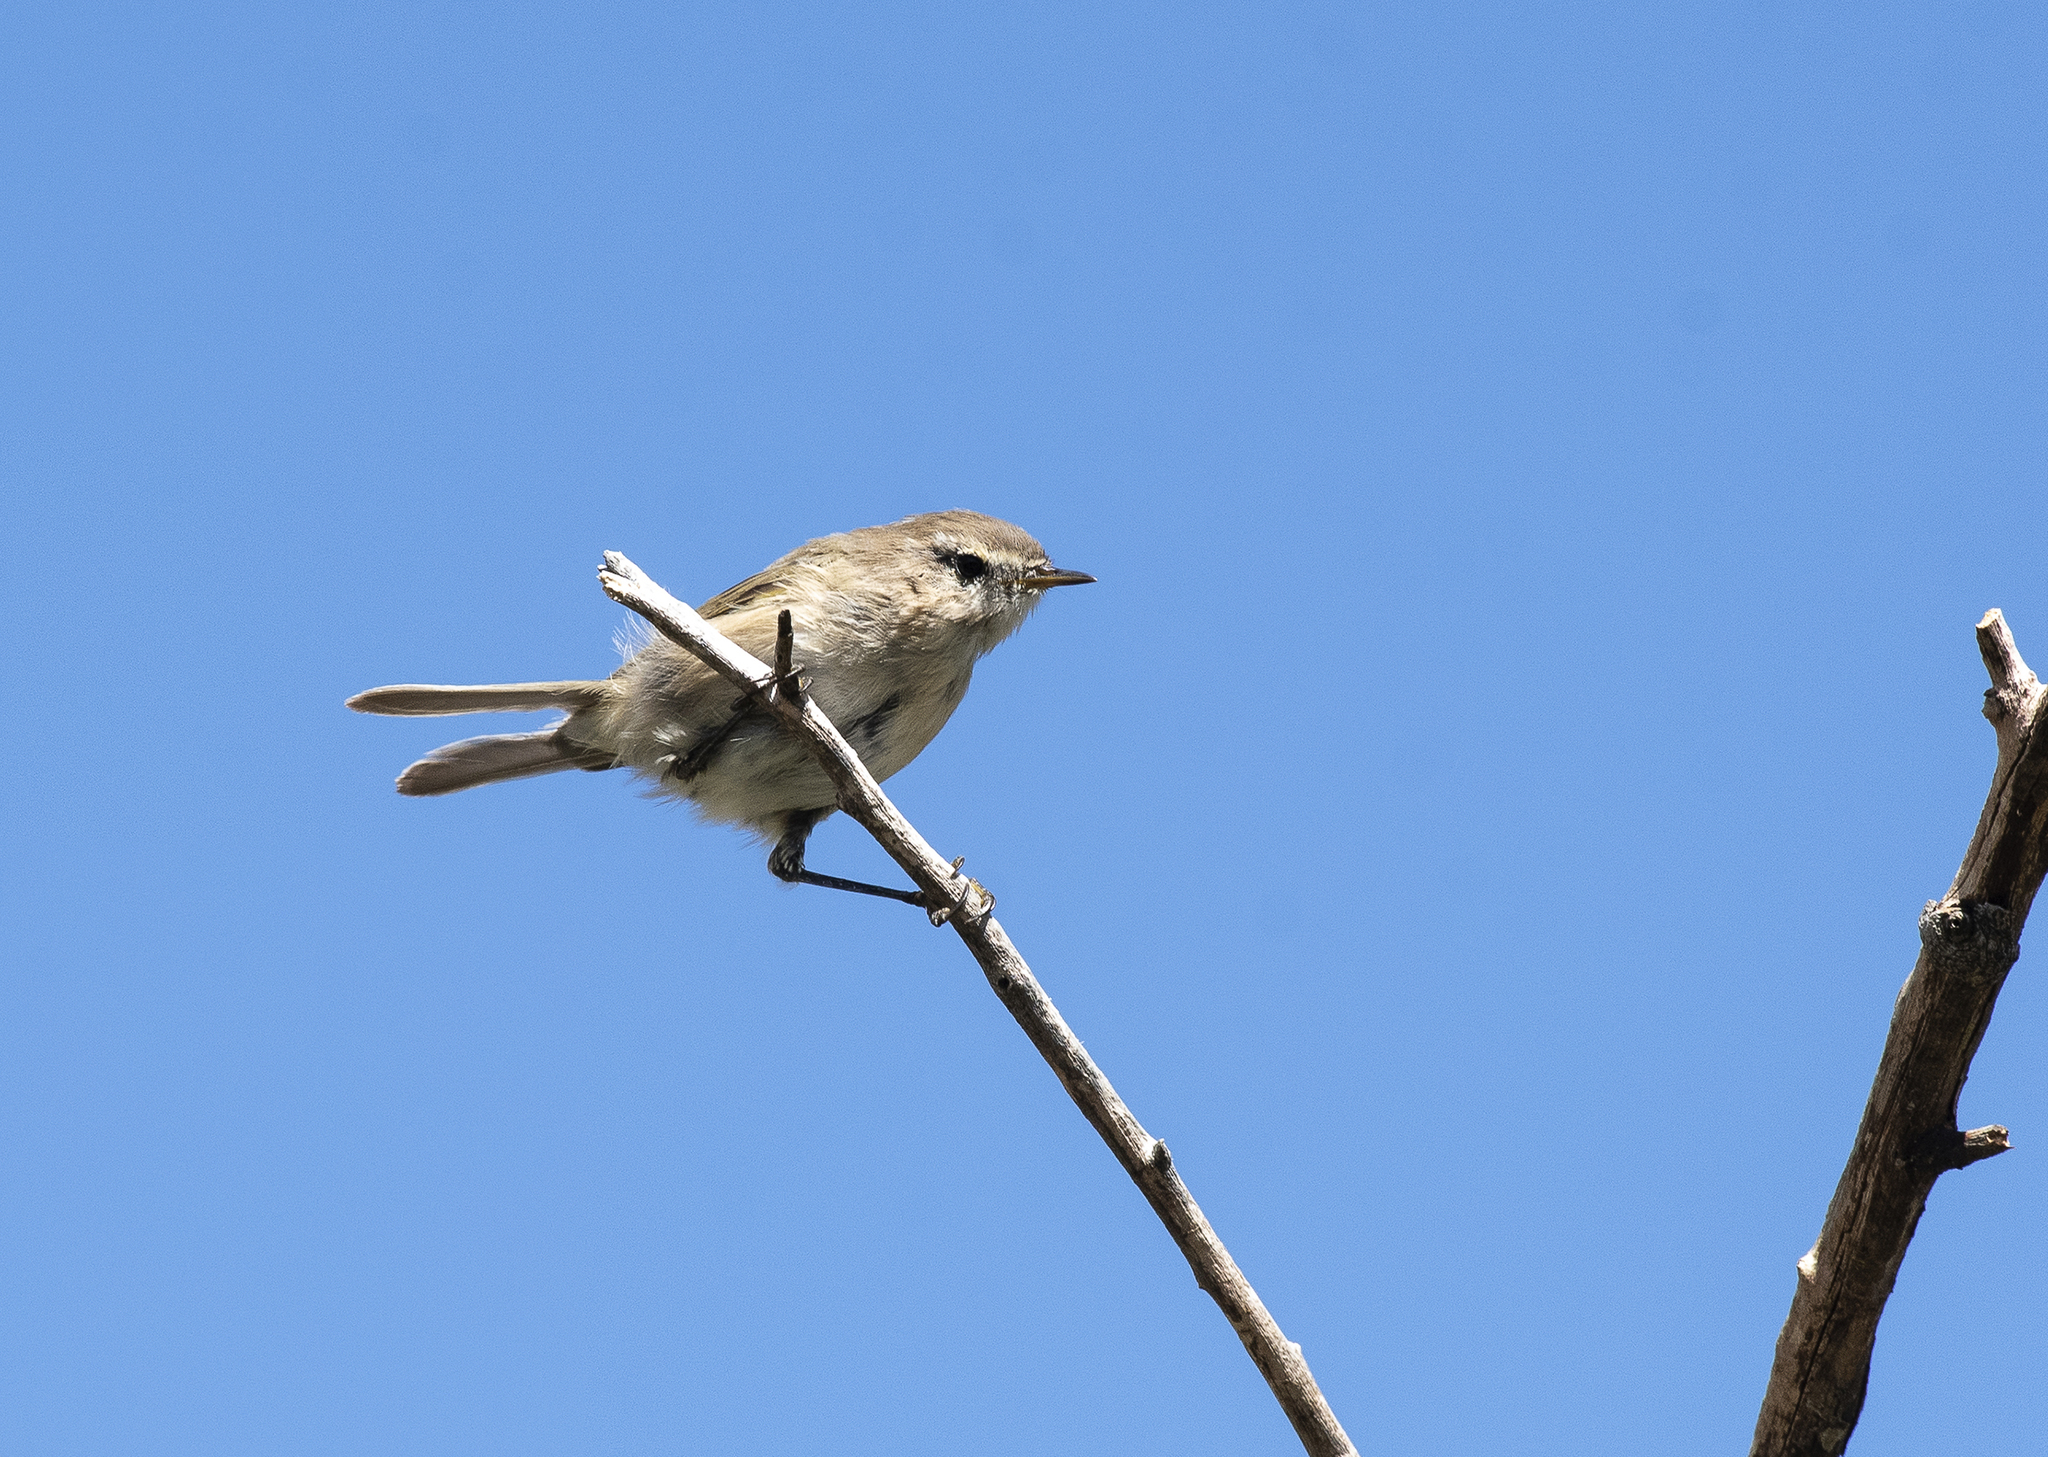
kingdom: Animalia
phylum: Chordata
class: Aves
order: Passeriformes
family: Phylloscopidae
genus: Phylloscopus
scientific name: Phylloscopus sindianus
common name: Mountain chiffchaff
